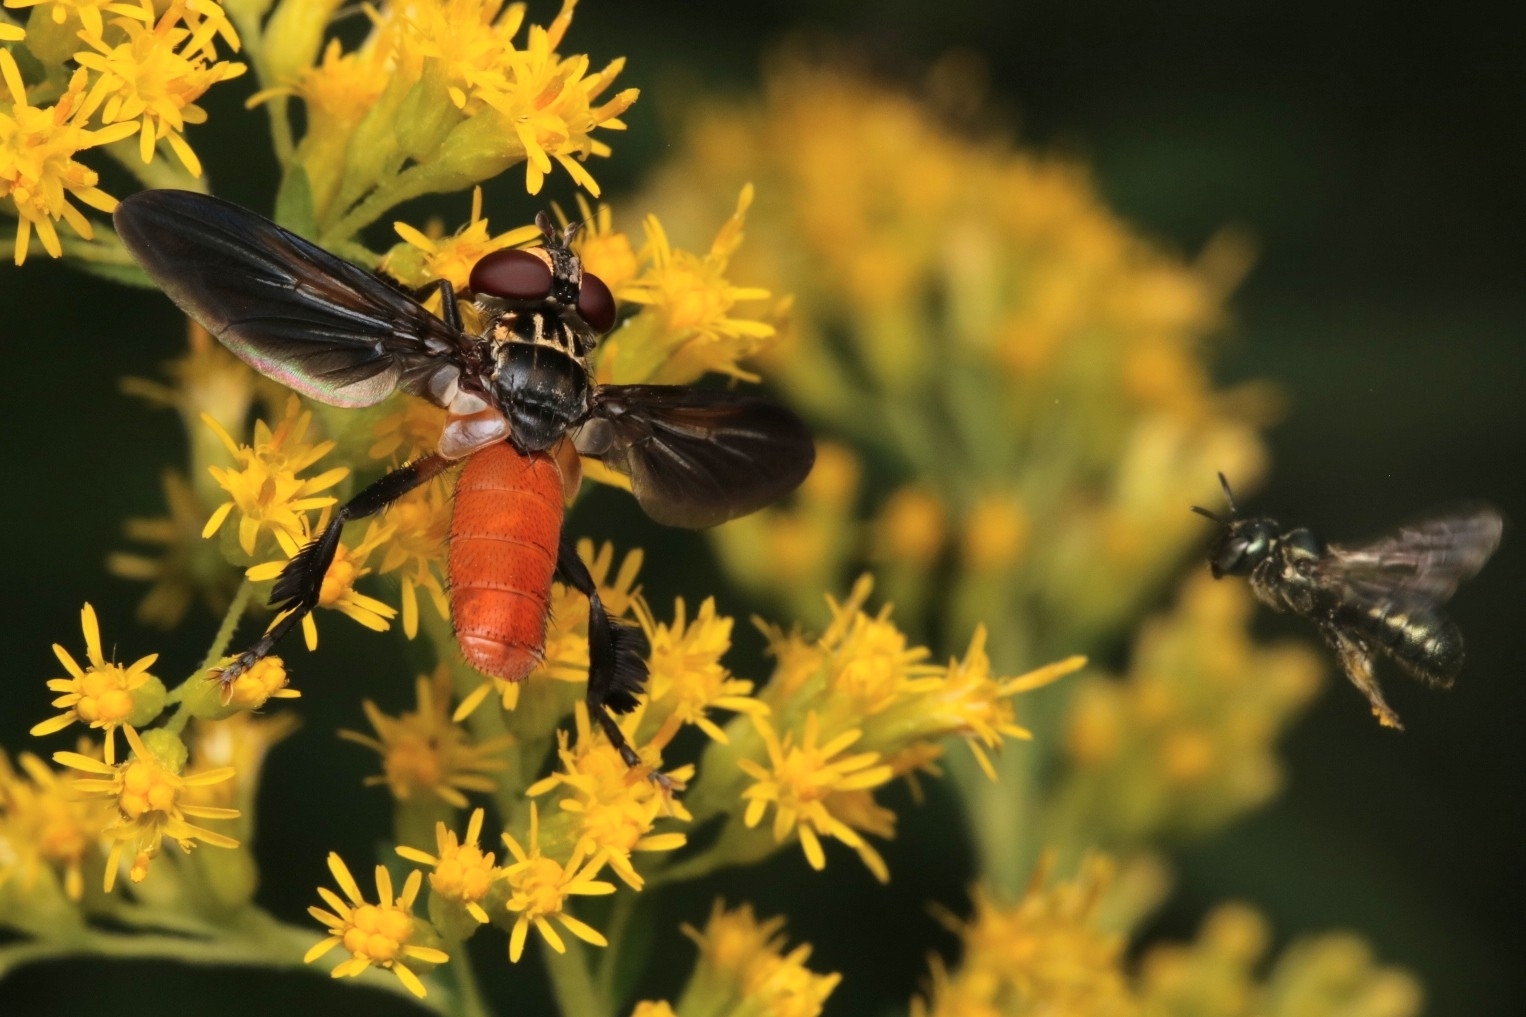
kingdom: Animalia
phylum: Arthropoda
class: Insecta
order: Diptera
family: Tachinidae
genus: Trichopoda
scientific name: Trichopoda pennipes
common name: Tachinid fly
